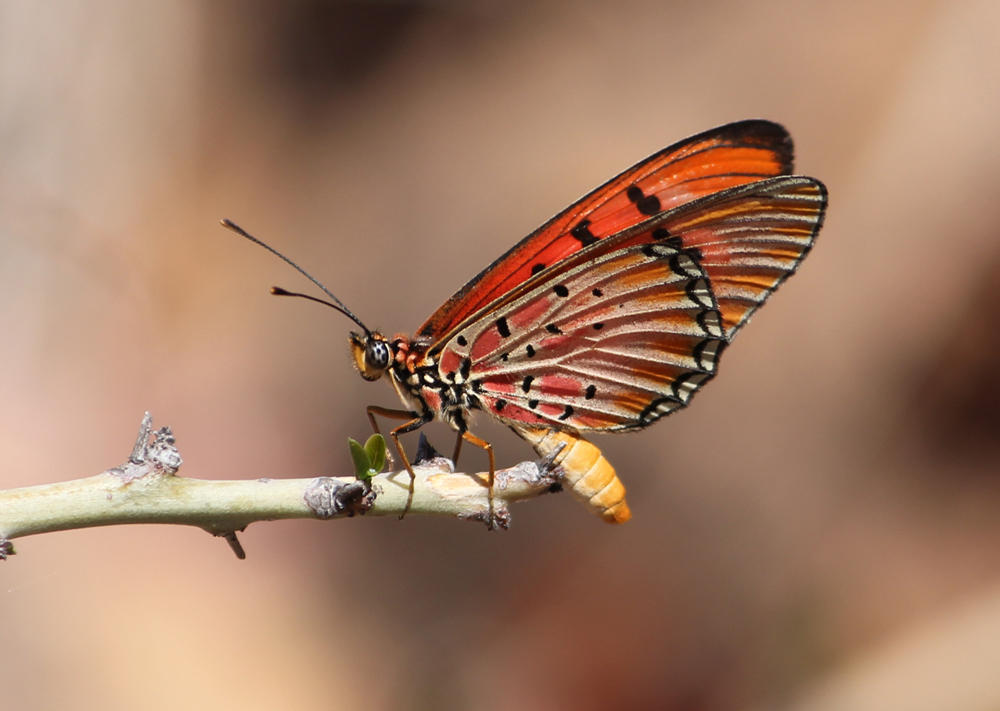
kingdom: Animalia
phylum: Arthropoda
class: Insecta
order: Lepidoptera
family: Nymphalidae
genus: Stephenia
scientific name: Stephenia
